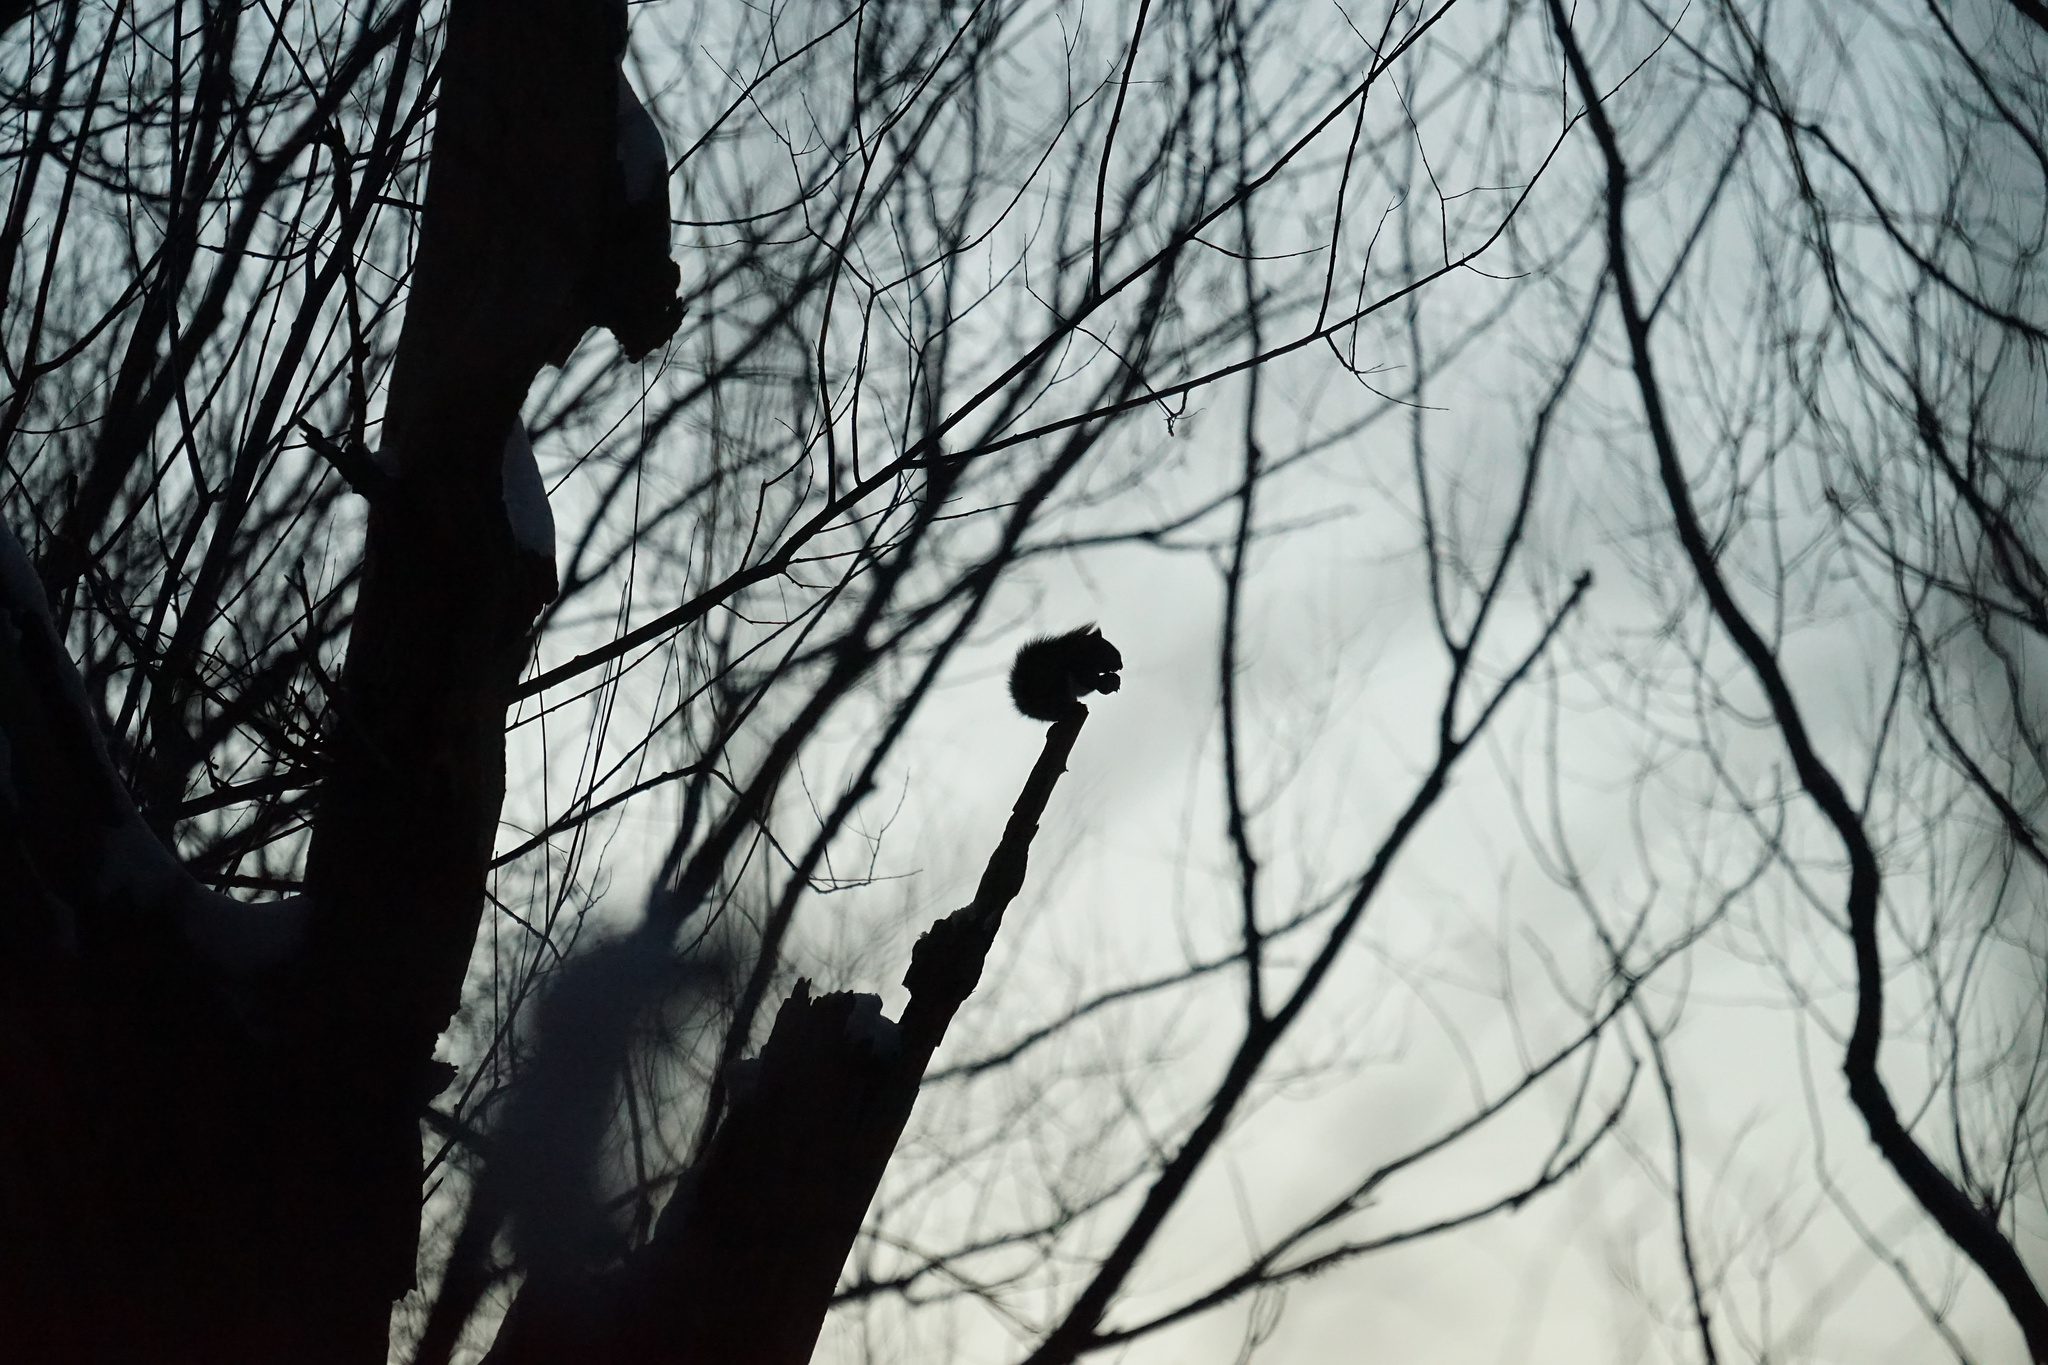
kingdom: Animalia
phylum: Chordata
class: Mammalia
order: Rodentia
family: Sciuridae
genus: Tamiasciurus
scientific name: Tamiasciurus hudsonicus
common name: Red squirrel
